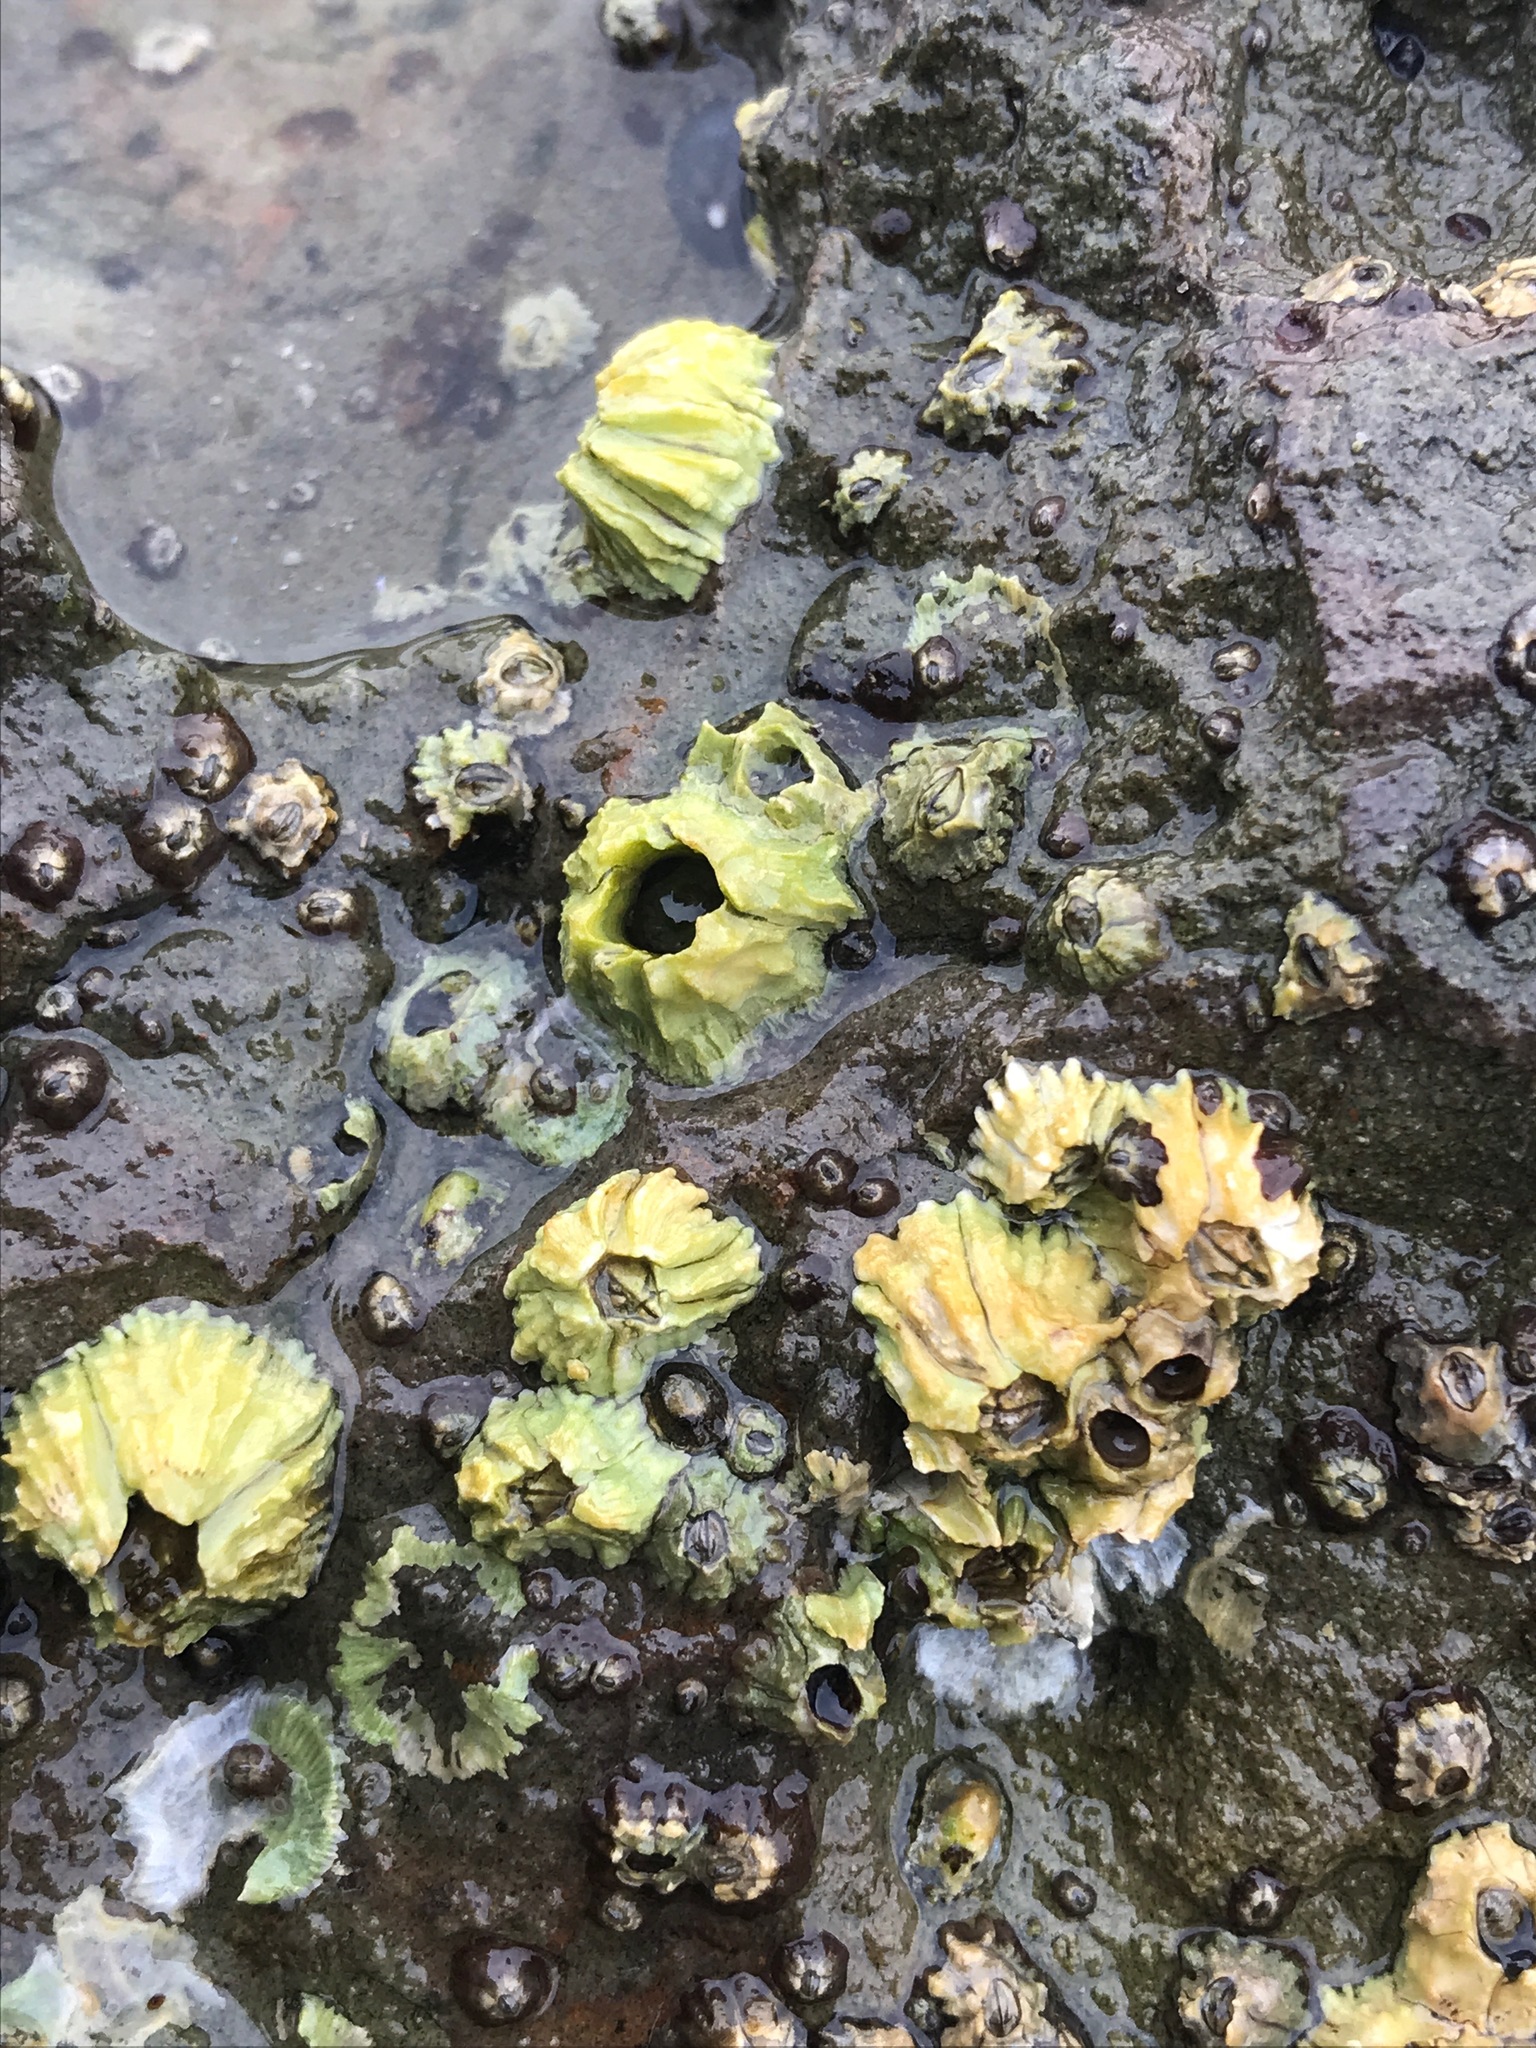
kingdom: Animalia
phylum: Arthropoda
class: Maxillopoda
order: Sessilia
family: Balanidae
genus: Balanus
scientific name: Balanus glandula
